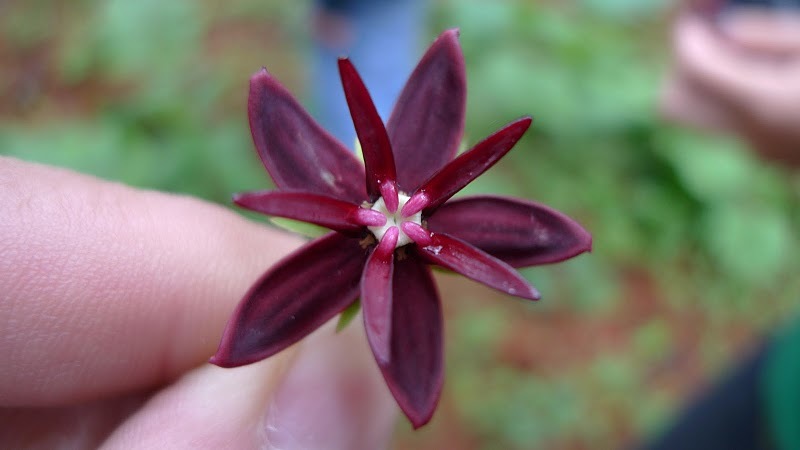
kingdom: Plantae
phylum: Tracheophyta
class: Magnoliopsida
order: Gentianales
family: Apocynaceae
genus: Asclepias
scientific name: Asclepias melantha
